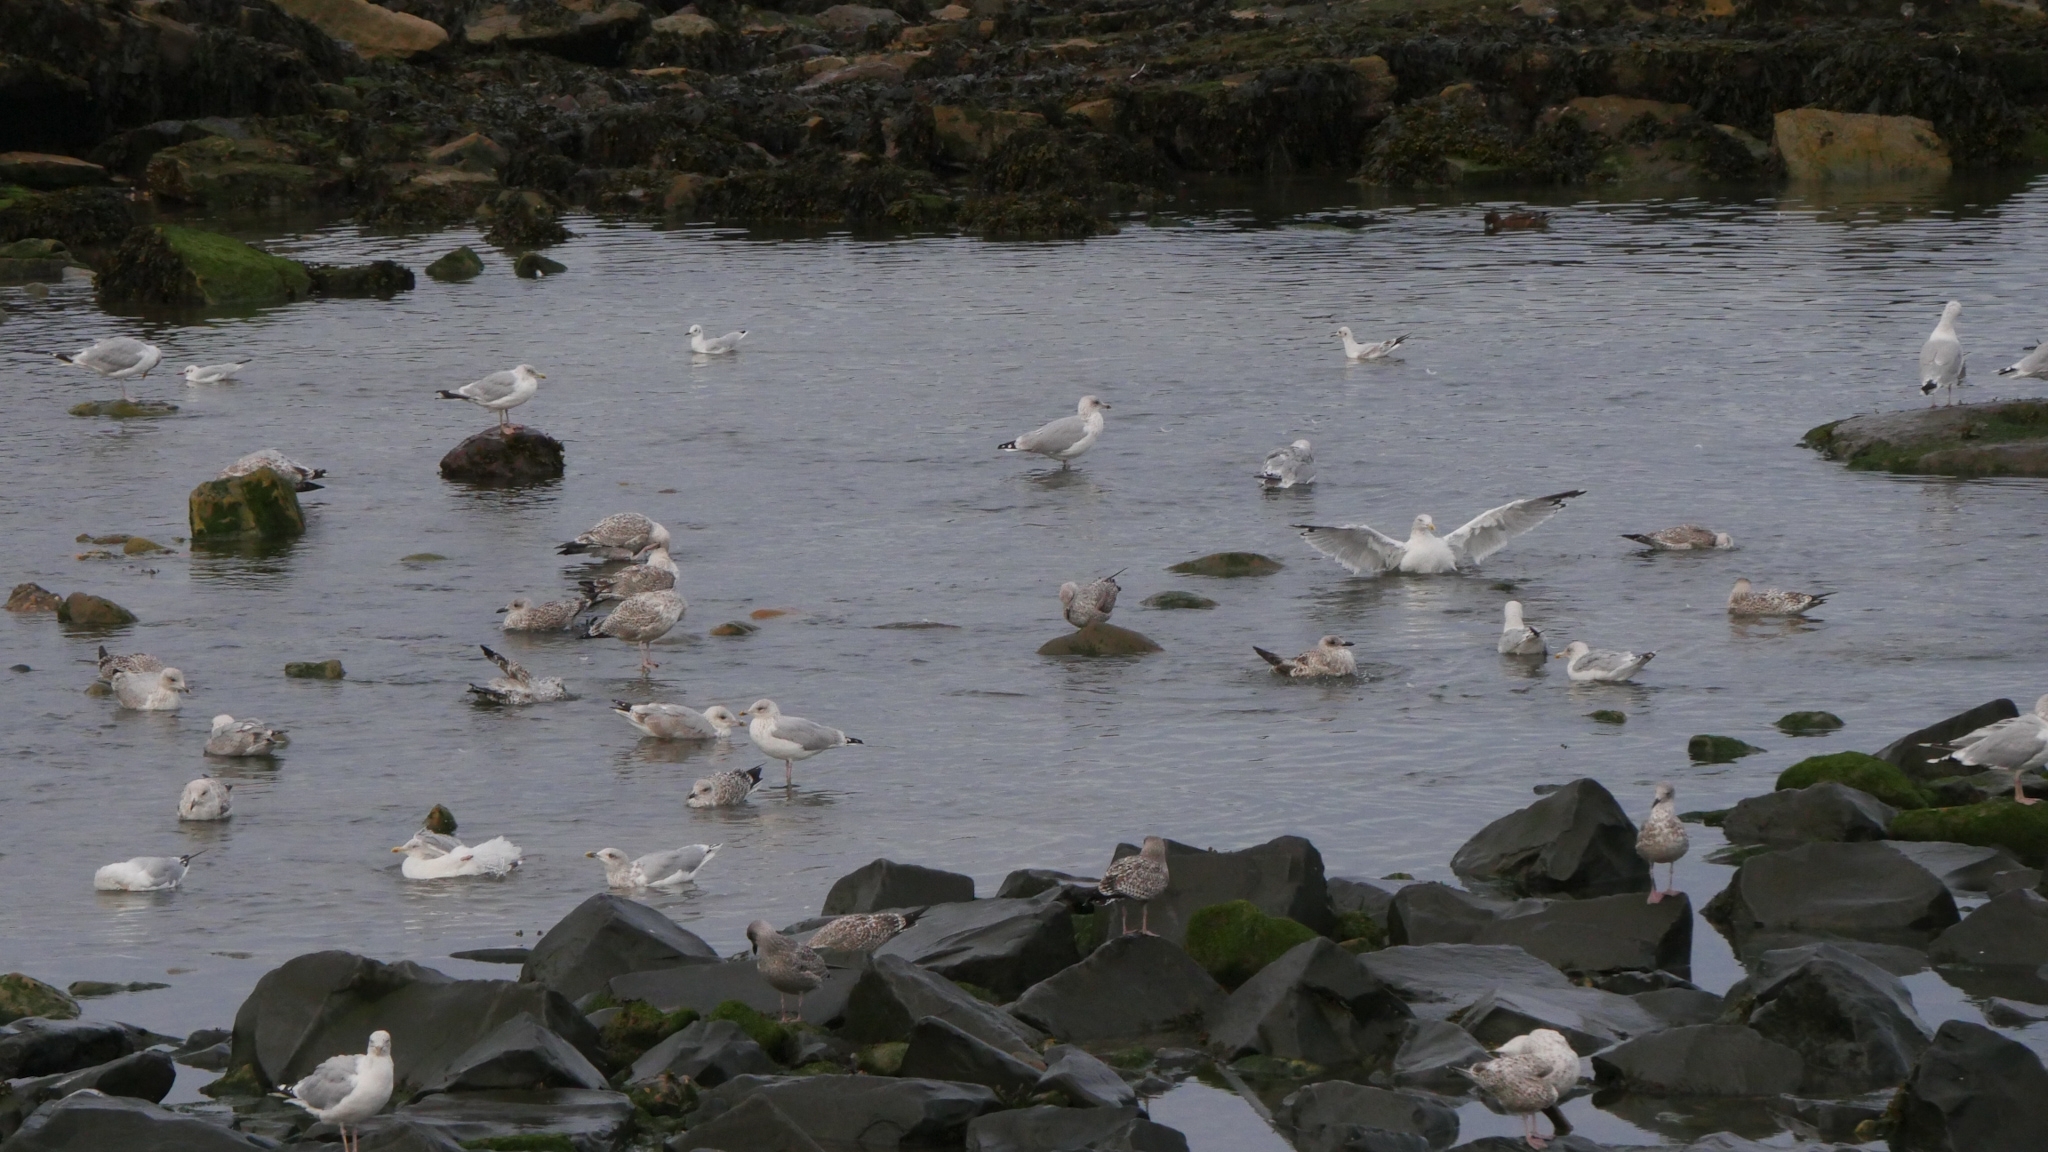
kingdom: Animalia
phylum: Chordata
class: Aves
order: Charadriiformes
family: Laridae
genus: Larus
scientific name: Larus argentatus
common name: Herring gull
